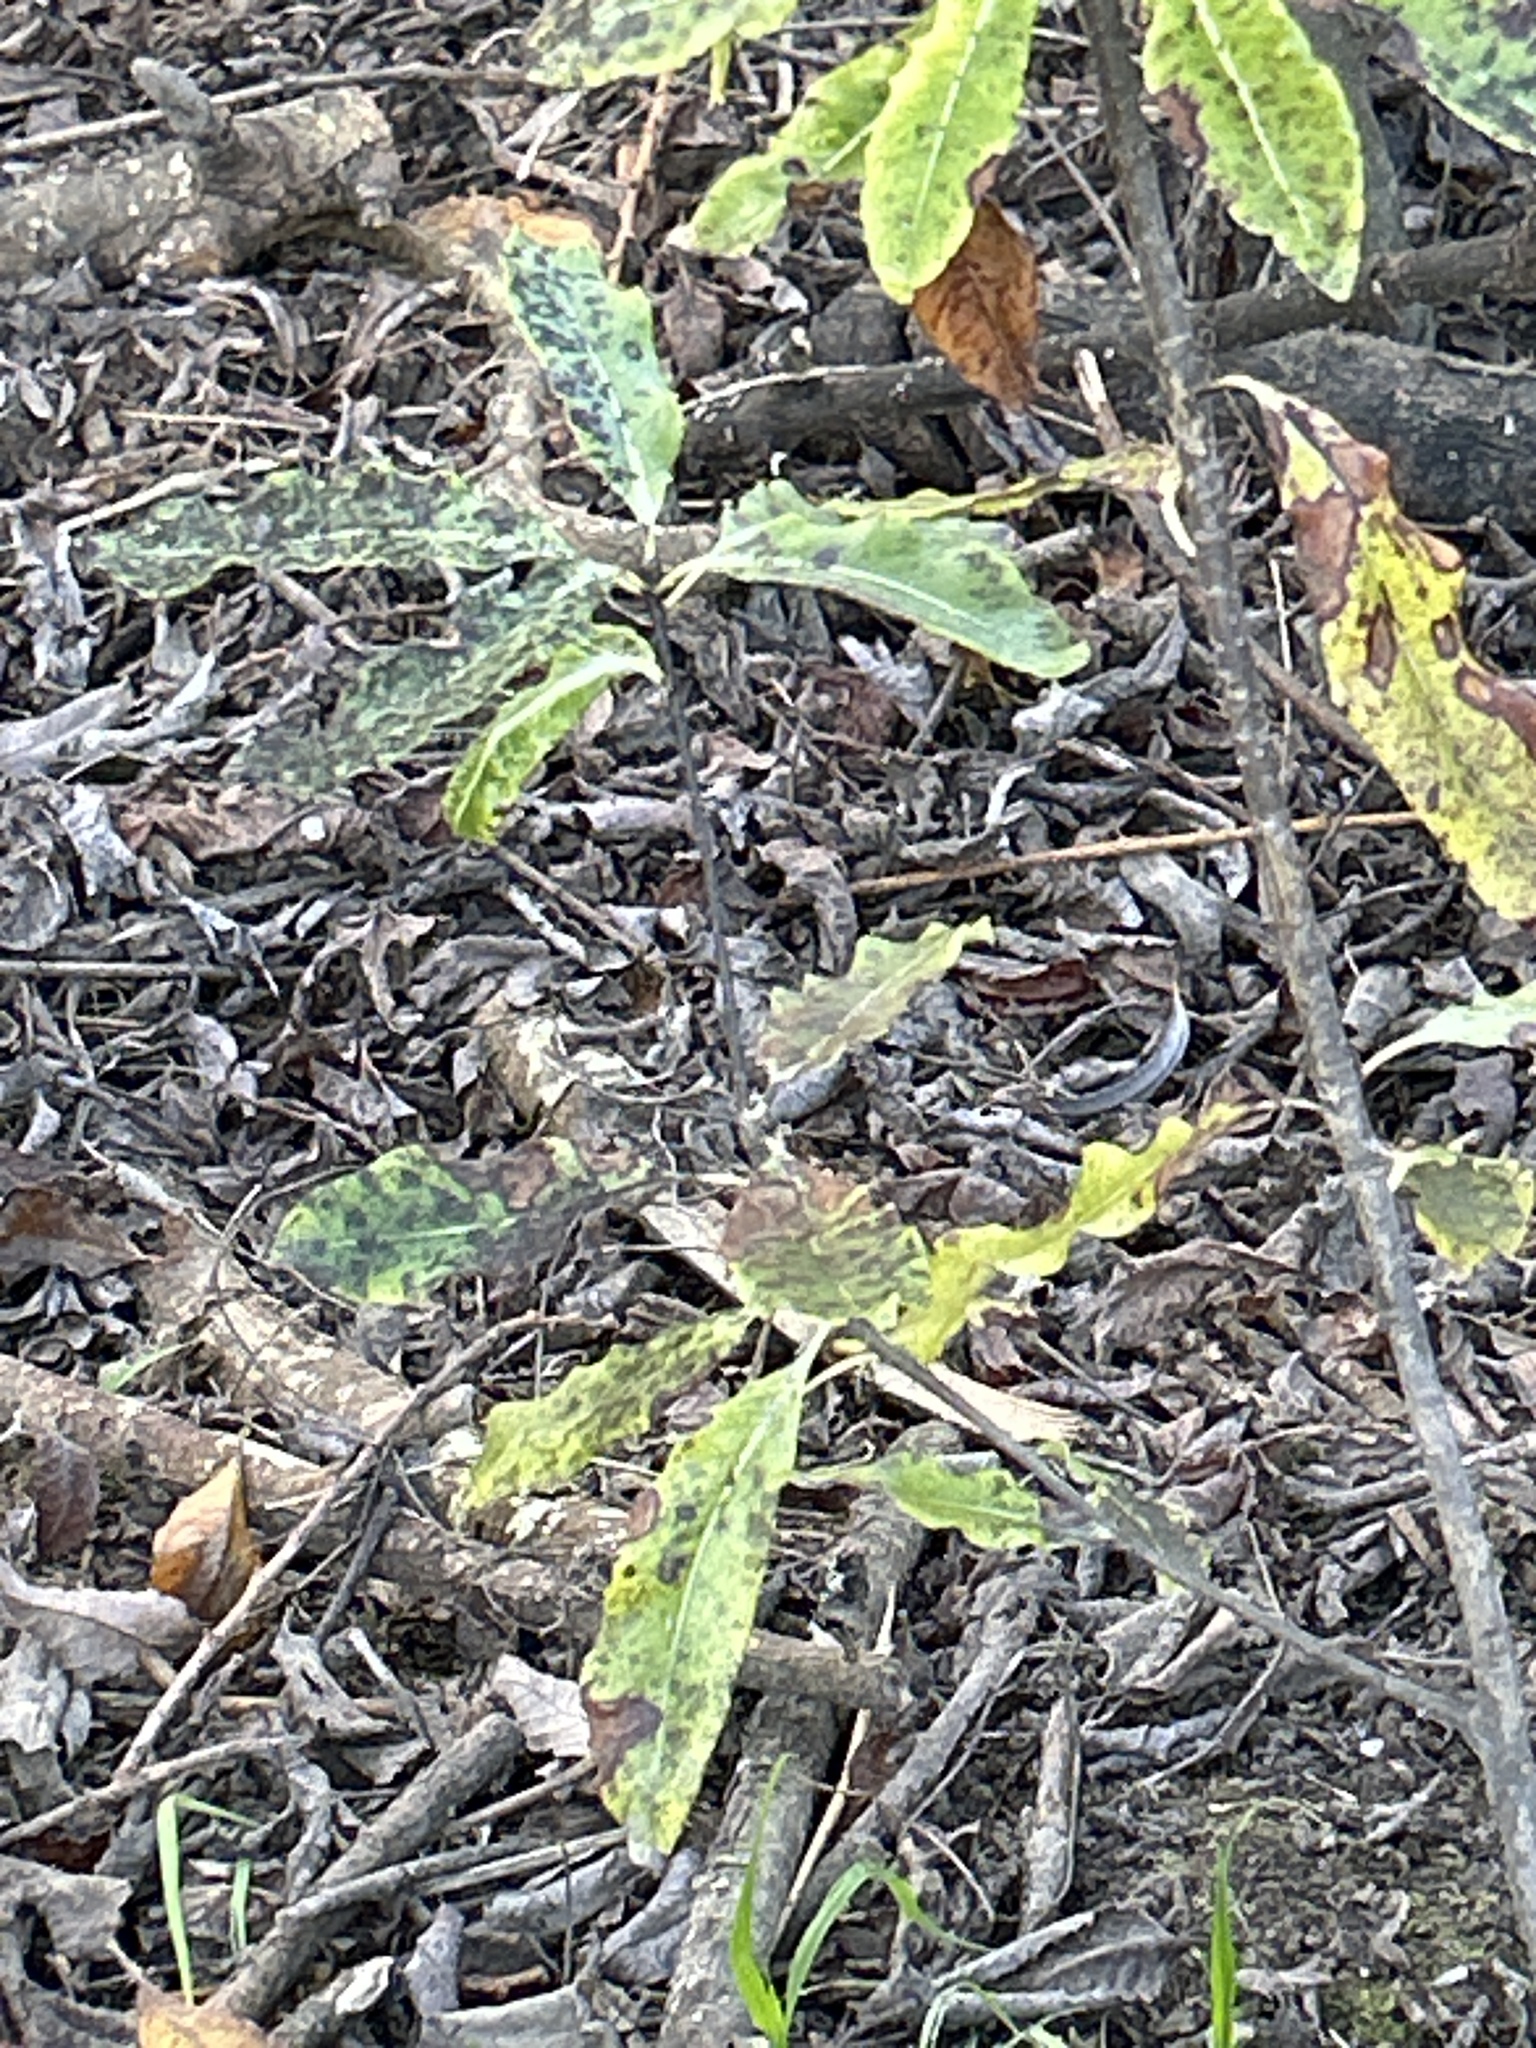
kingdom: Plantae
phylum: Tracheophyta
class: Magnoliopsida
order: Apiales
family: Pittosporaceae
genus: Pittosporum
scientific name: Pittosporum eugenioides
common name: Lemonwood
